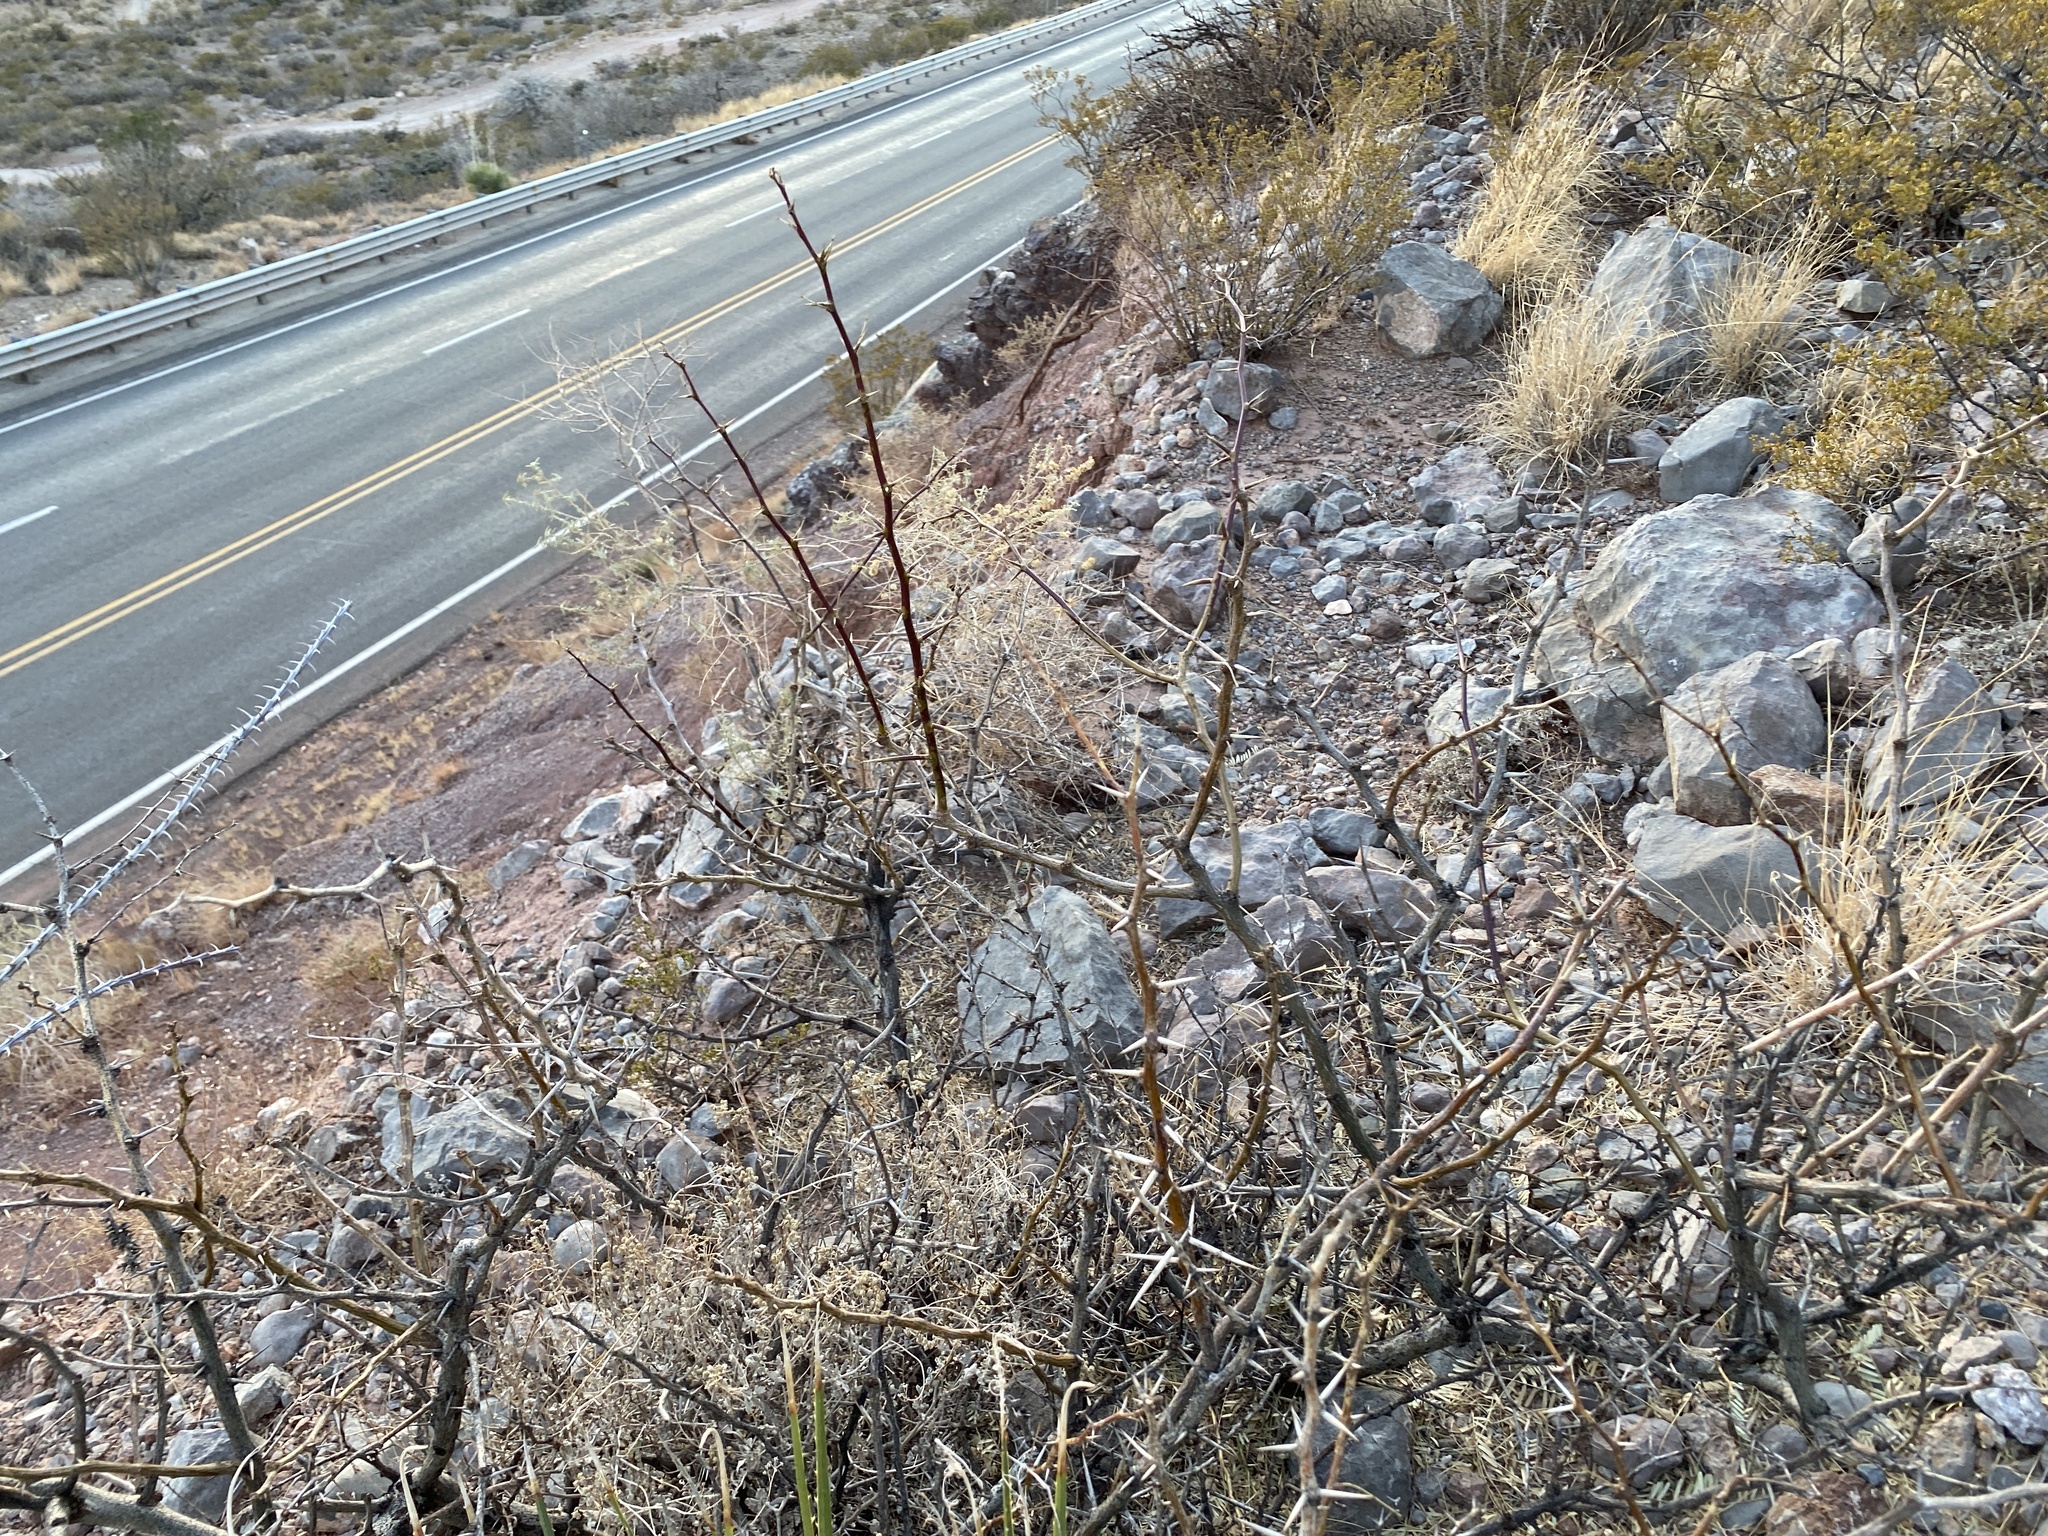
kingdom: Plantae
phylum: Tracheophyta
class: Magnoliopsida
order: Fabales
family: Fabaceae
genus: Prosopis
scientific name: Prosopis glandulosa
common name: Honey mesquite
